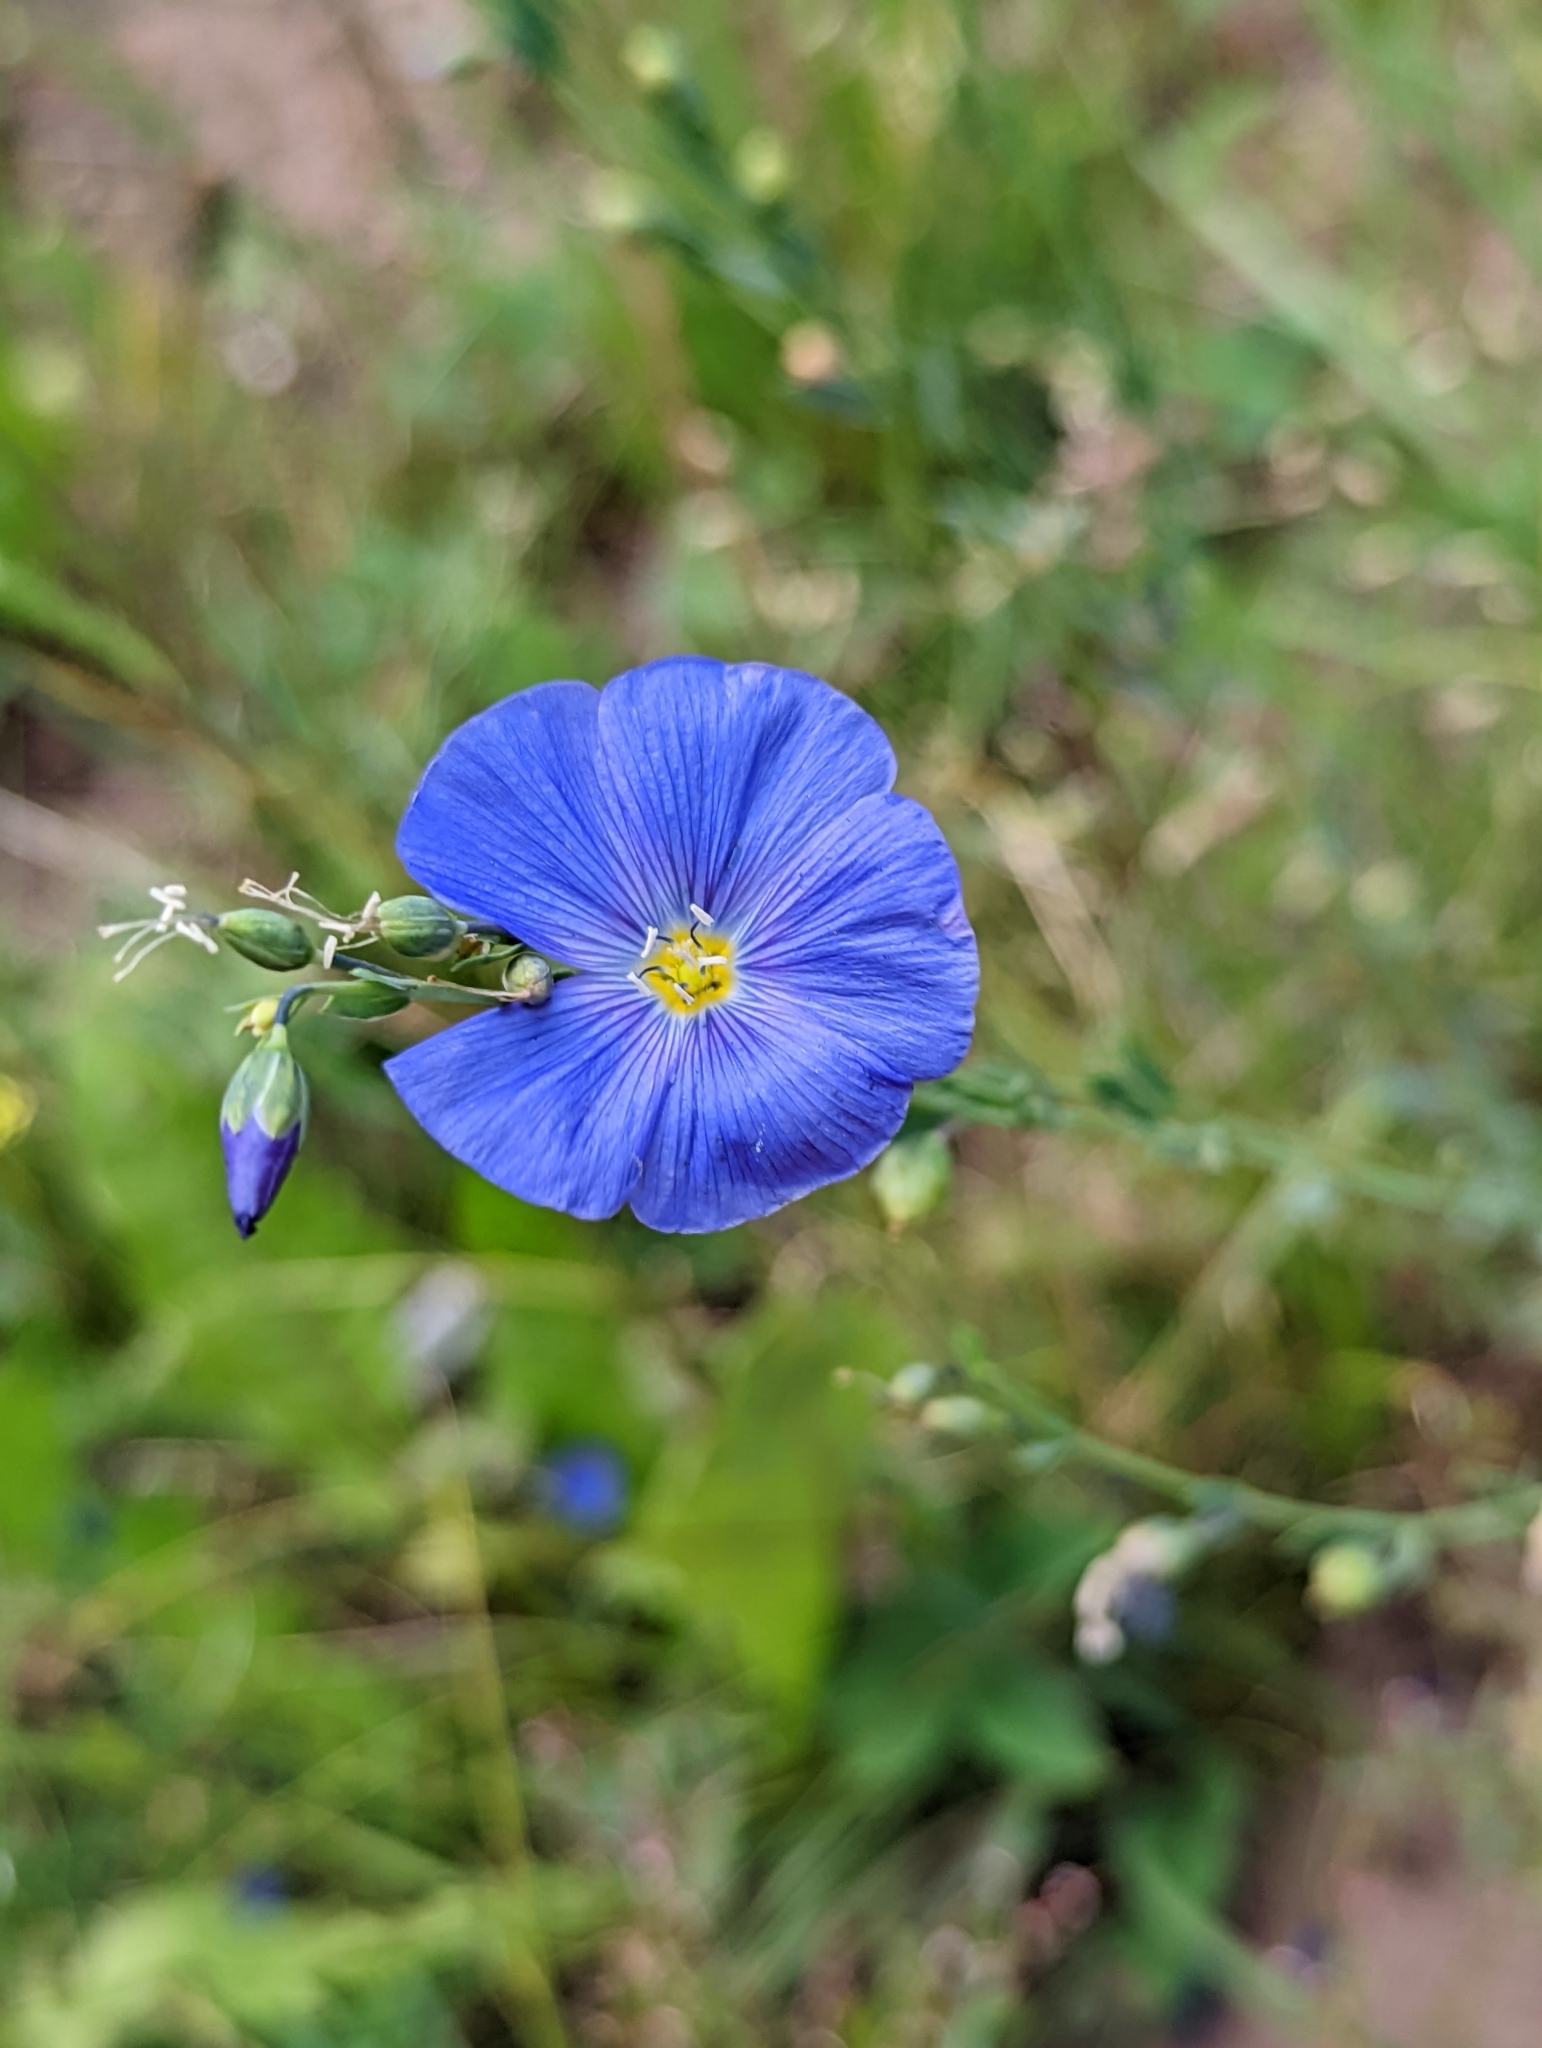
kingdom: Plantae
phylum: Tracheophyta
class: Magnoliopsida
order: Malpighiales
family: Linaceae
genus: Linum
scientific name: Linum lewisii
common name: Prairie flax
